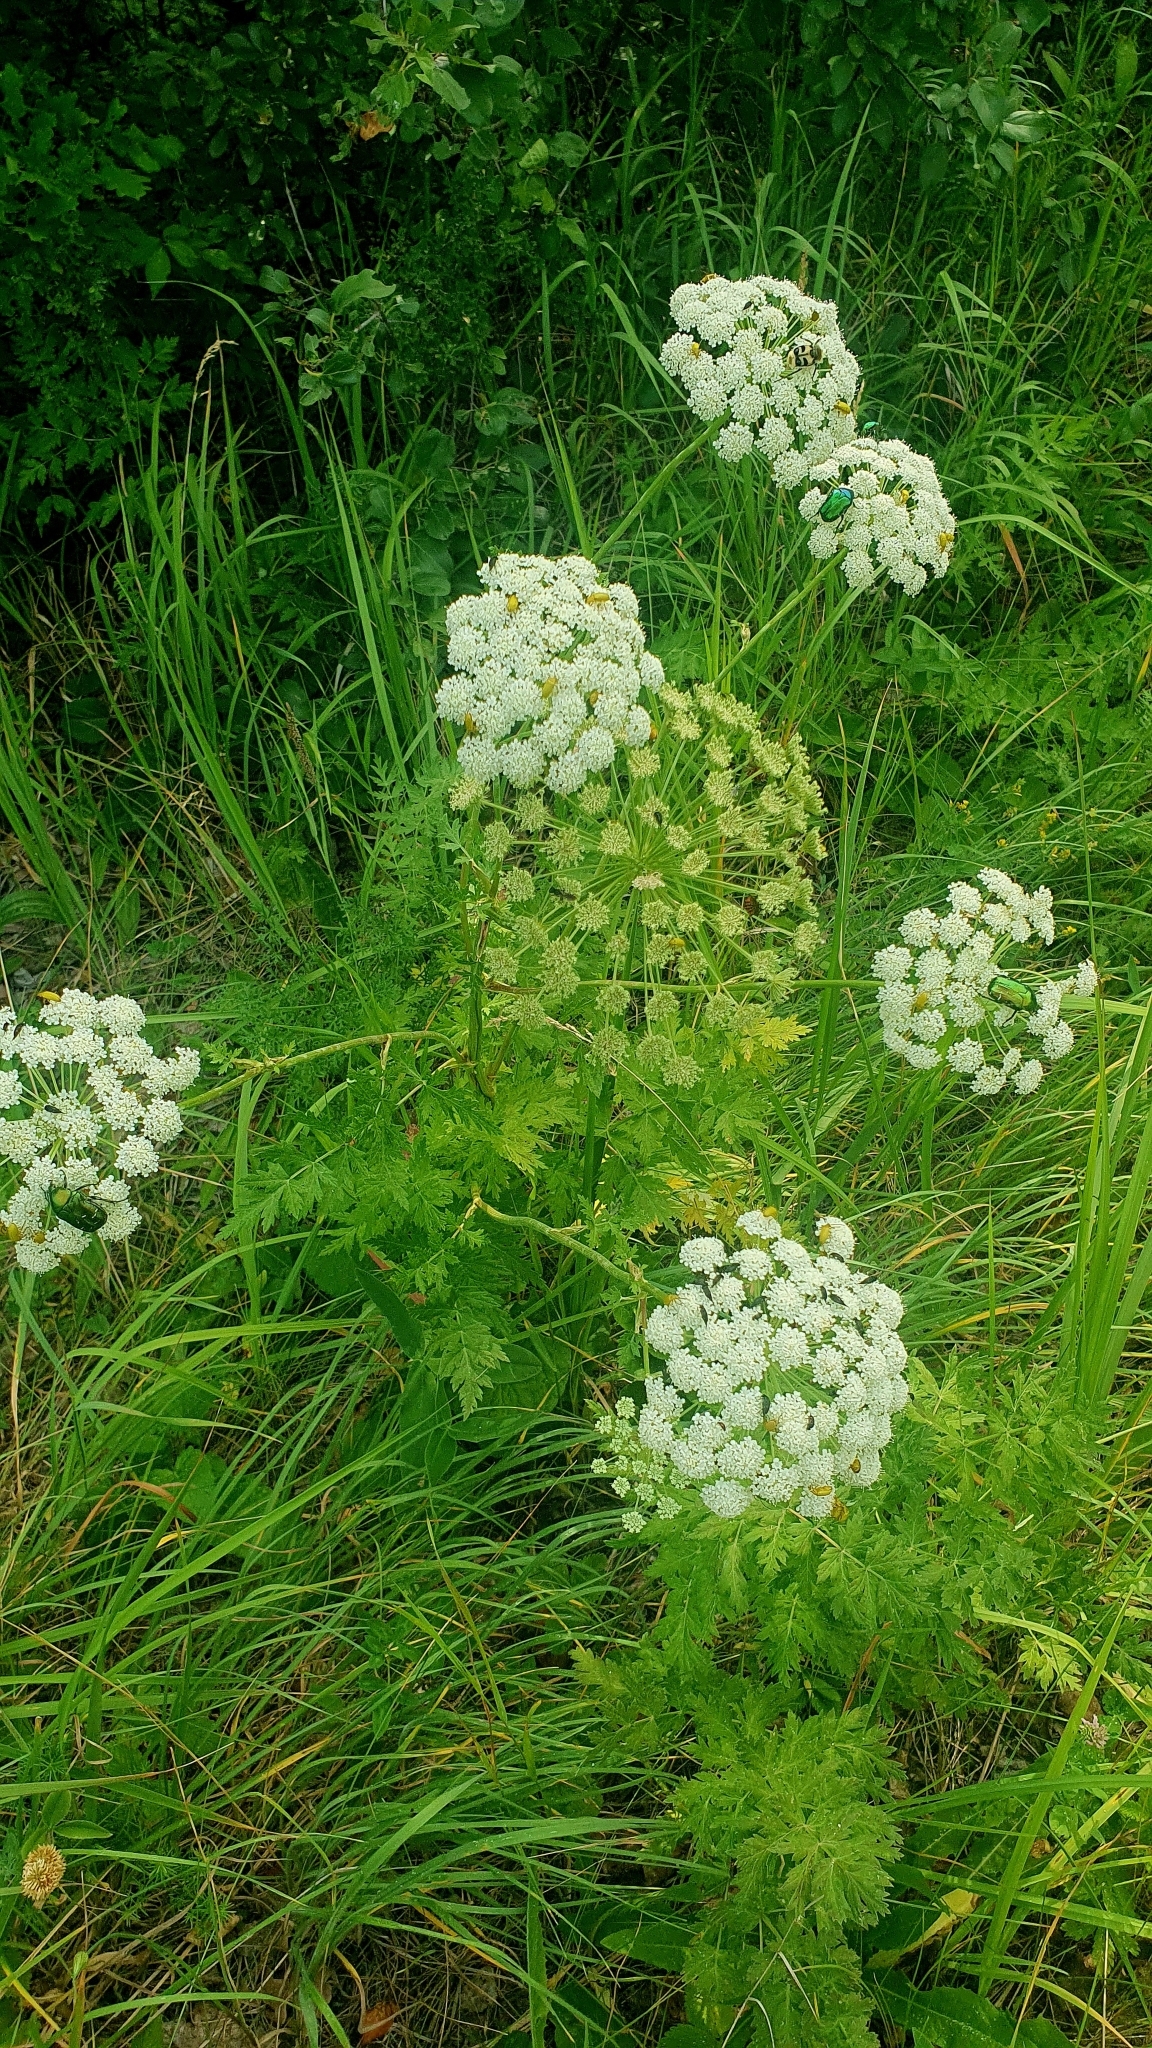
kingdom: Plantae
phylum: Tracheophyta
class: Magnoliopsida
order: Apiales
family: Apiaceae
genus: Seseli
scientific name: Seseli libanotis
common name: Mooncarrot
